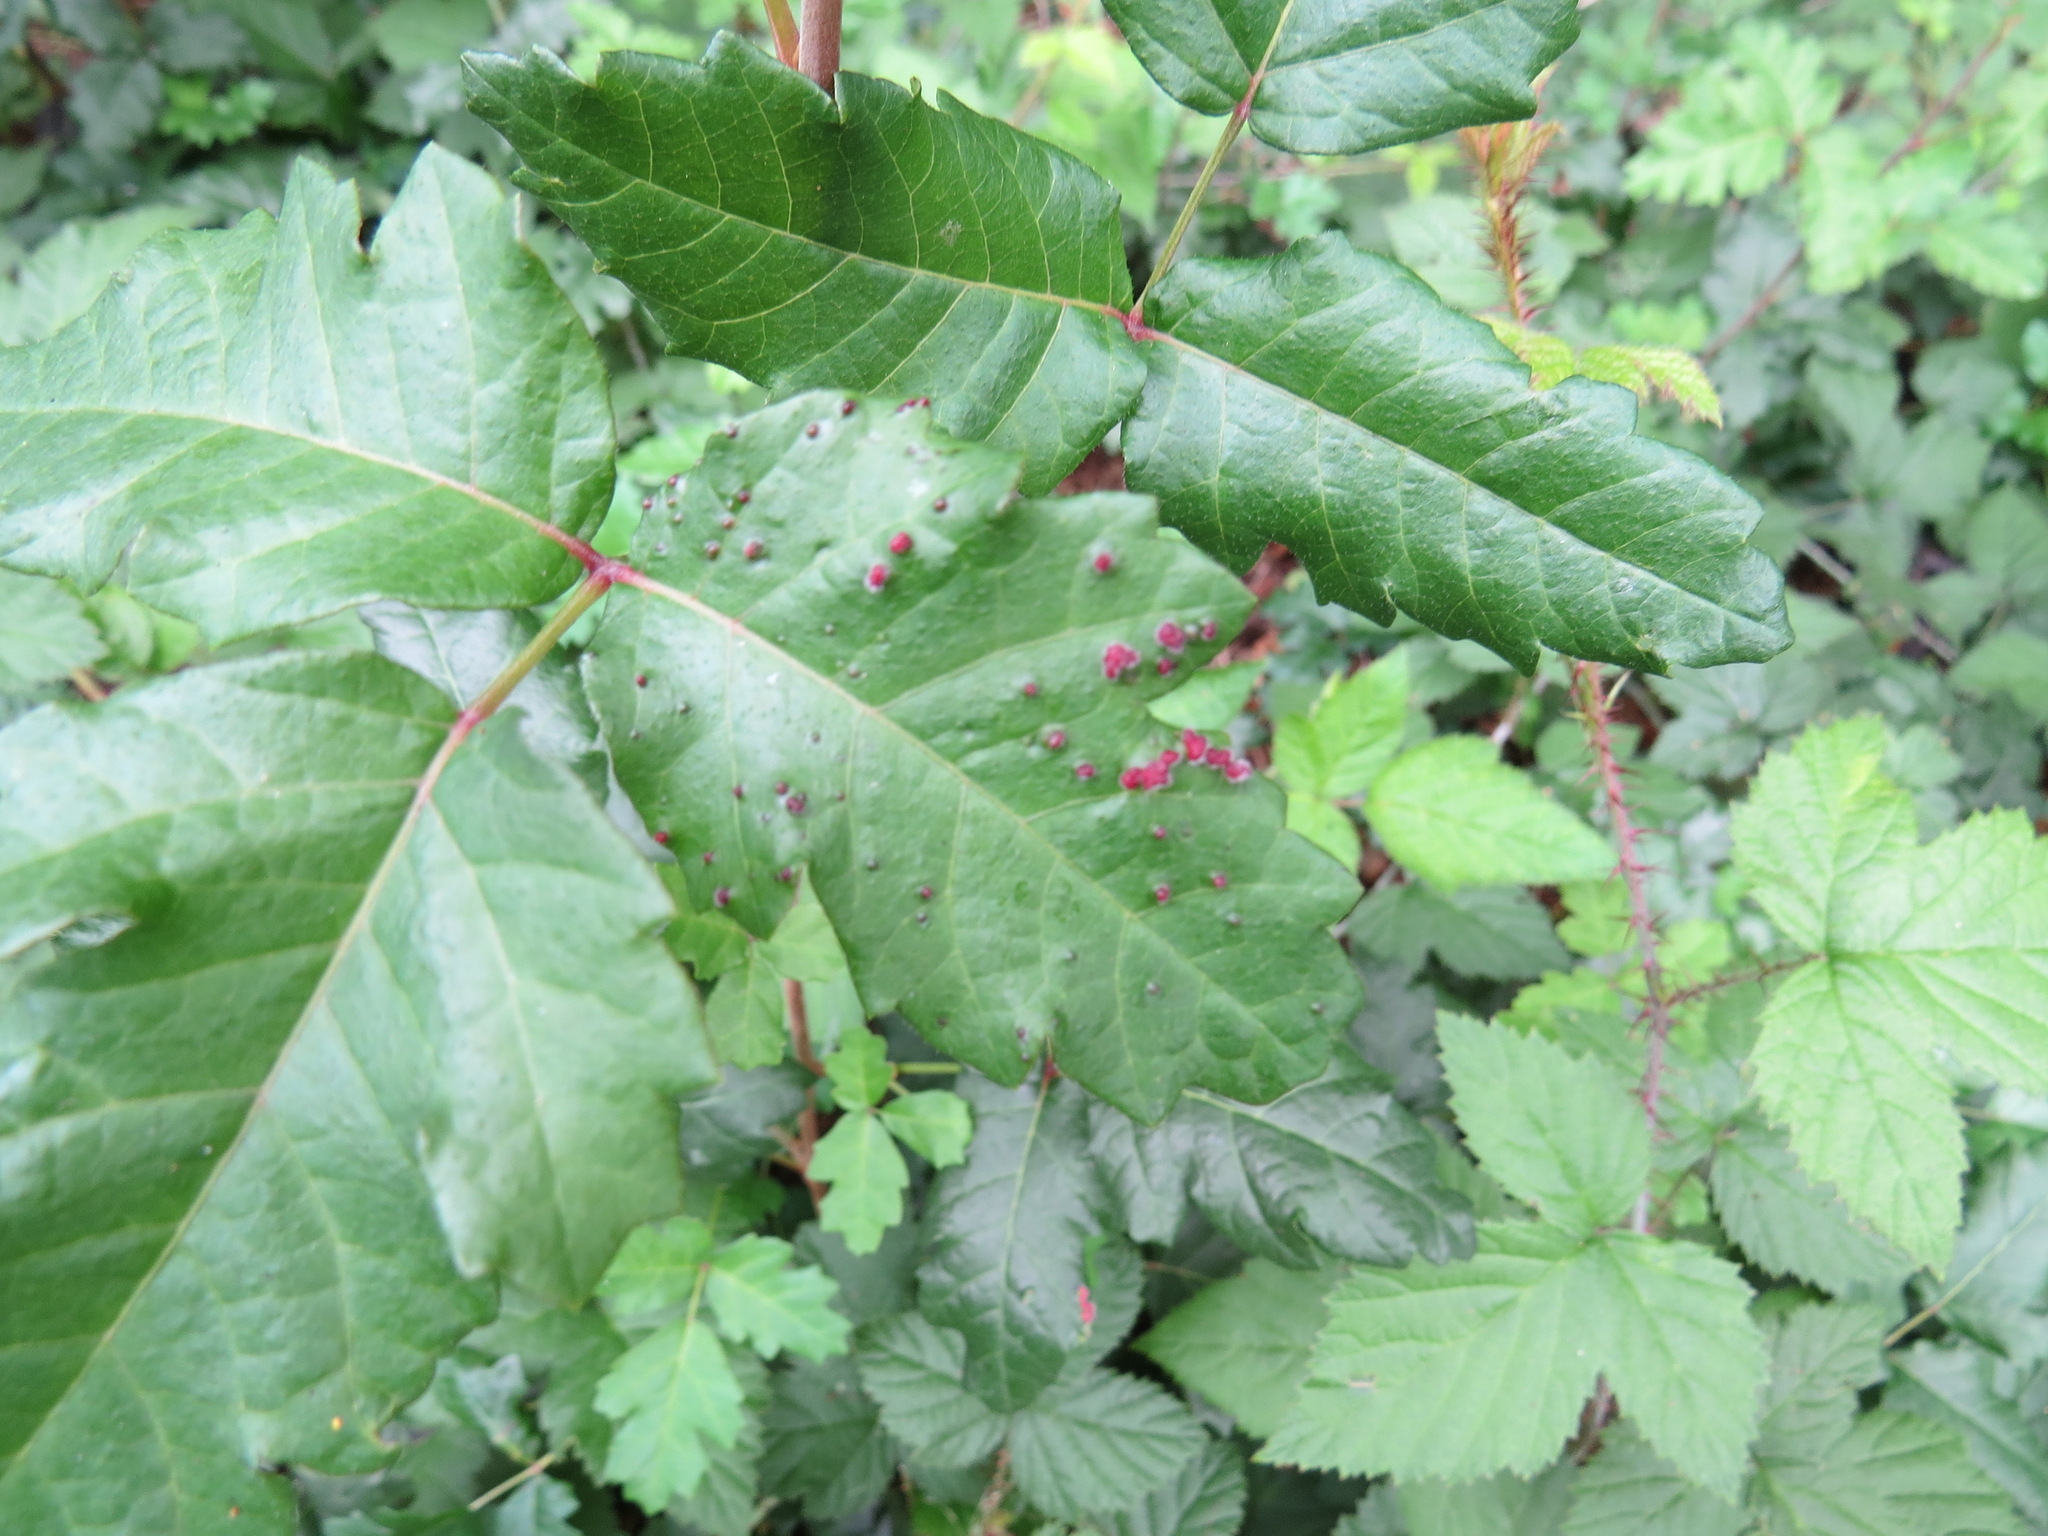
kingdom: Animalia
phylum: Arthropoda
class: Arachnida
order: Trombidiformes
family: Eriophyidae
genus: Aculops
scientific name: Aculops
